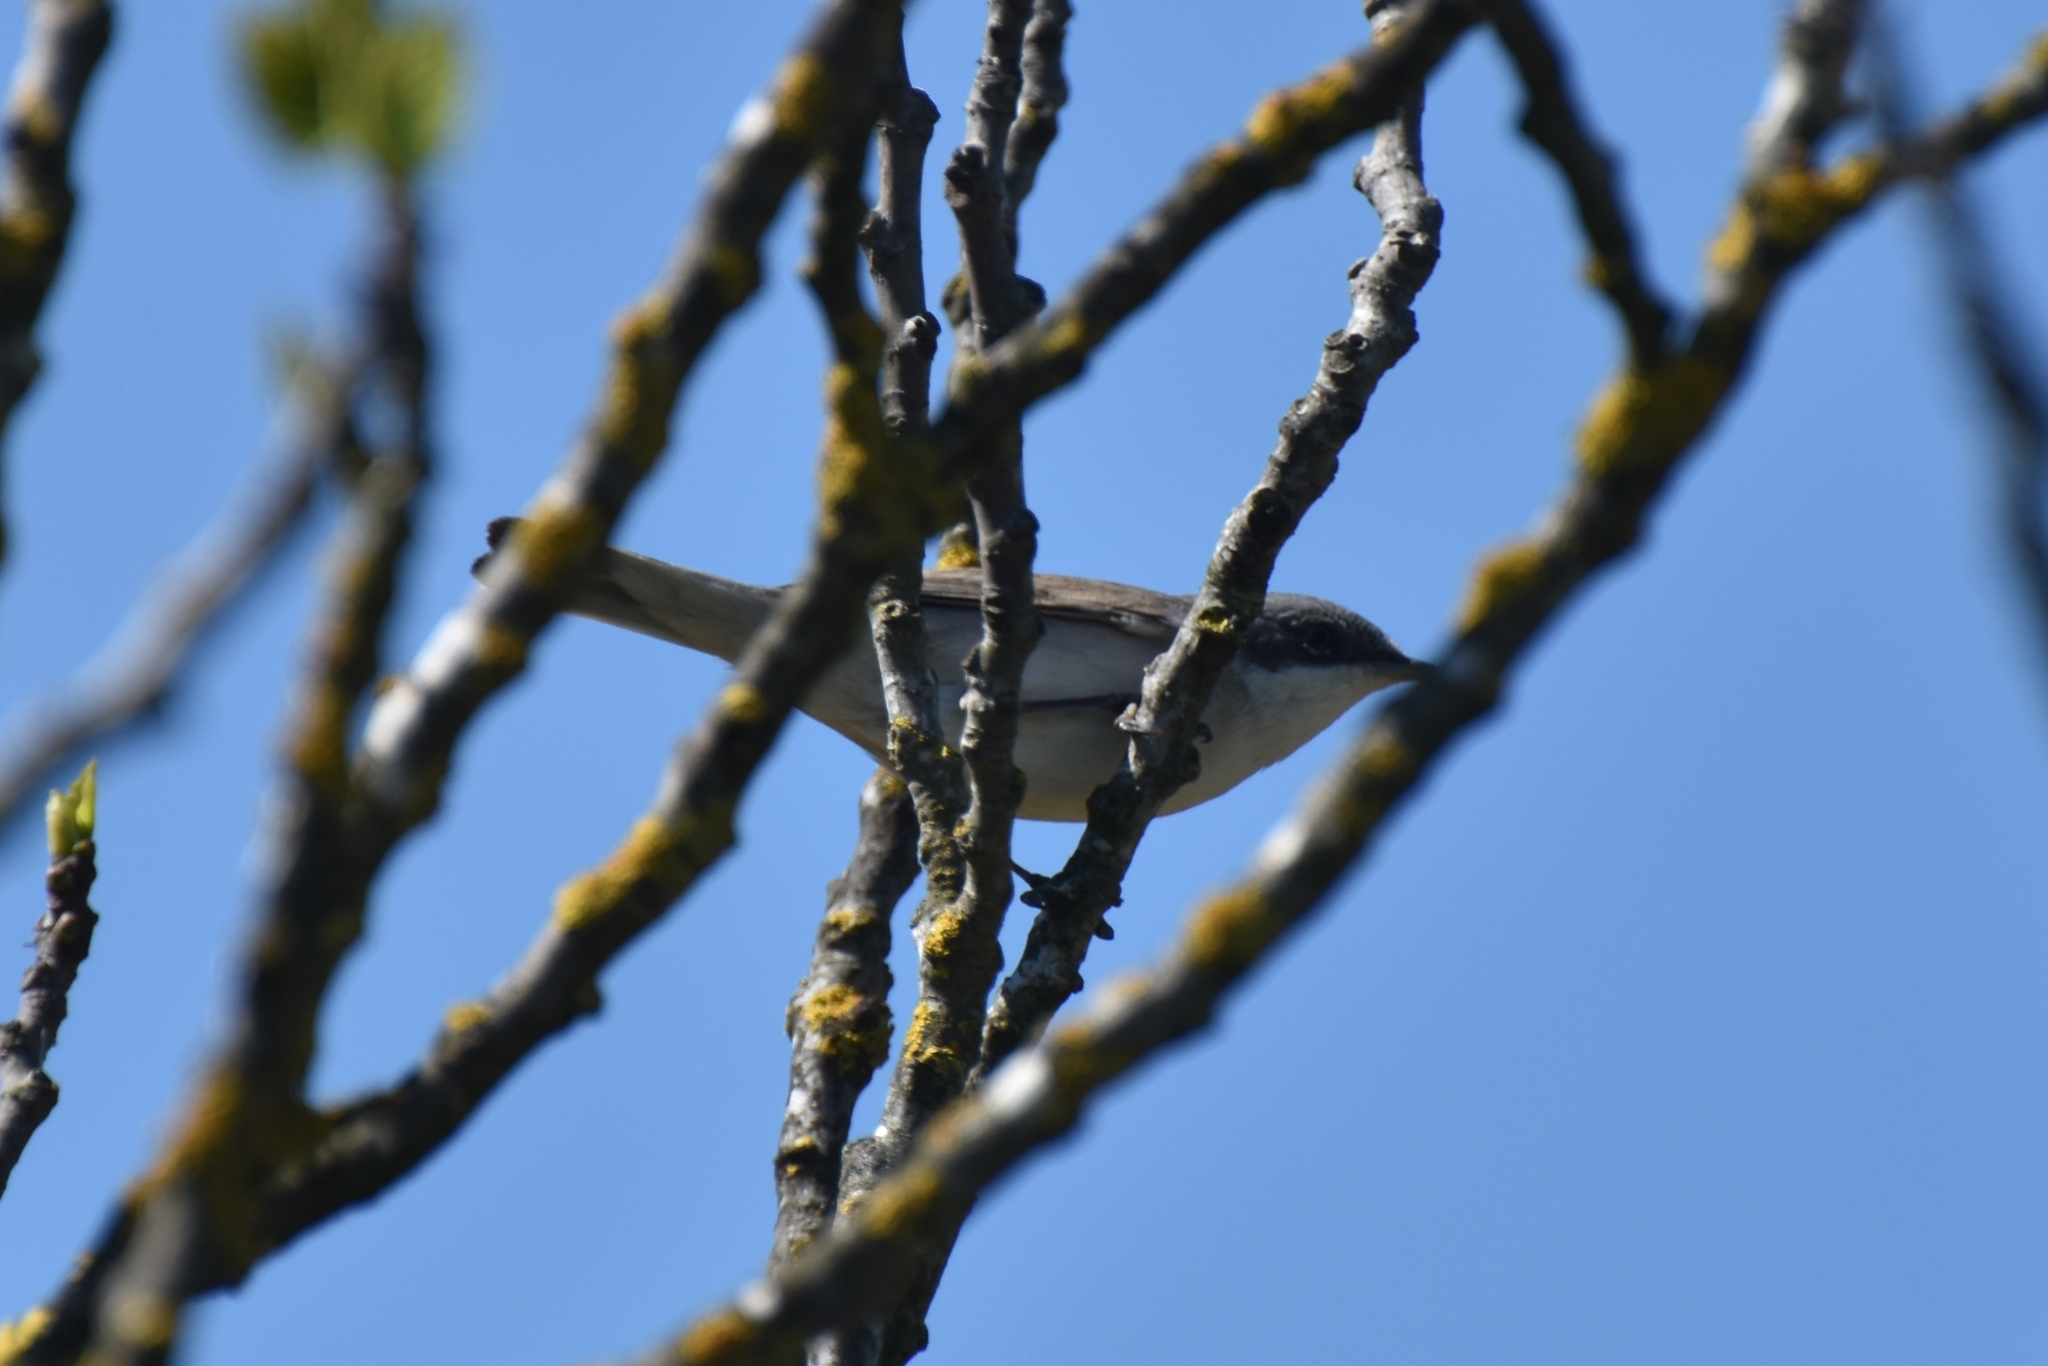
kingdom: Animalia
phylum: Chordata
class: Aves
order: Passeriformes
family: Sylviidae
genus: Sylvia
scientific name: Sylvia curruca
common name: Lesser whitethroat
